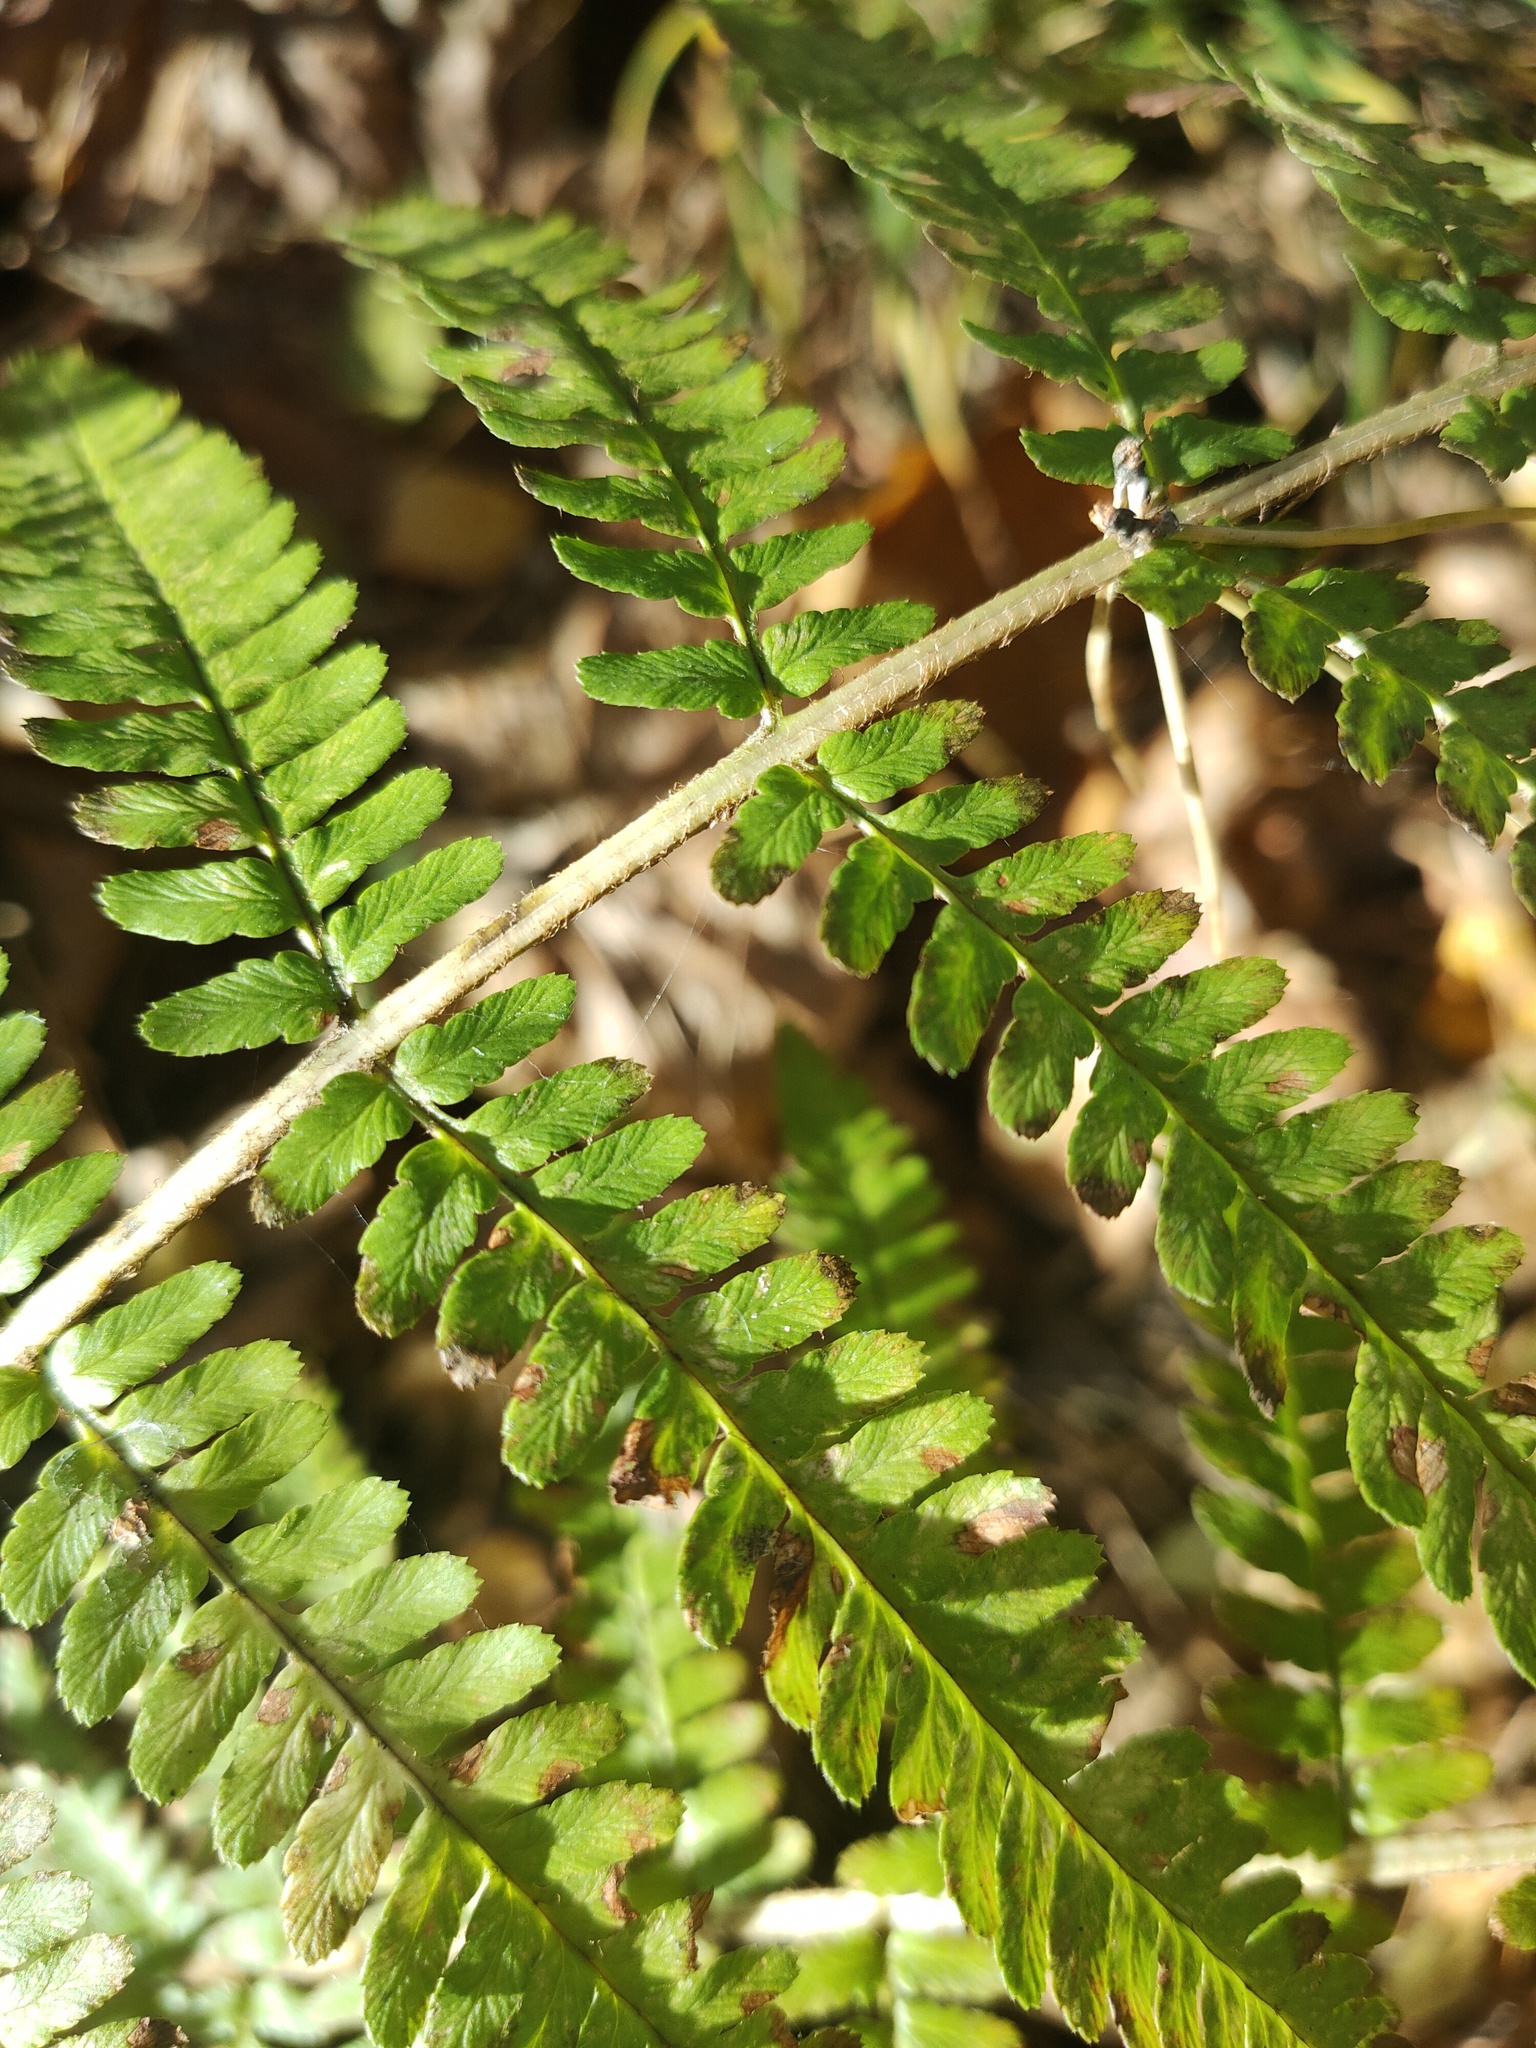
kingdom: Plantae
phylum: Tracheophyta
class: Polypodiopsida
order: Polypodiales
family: Dryopteridaceae
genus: Dryopteris
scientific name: Dryopteris filix-mas
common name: Male fern
